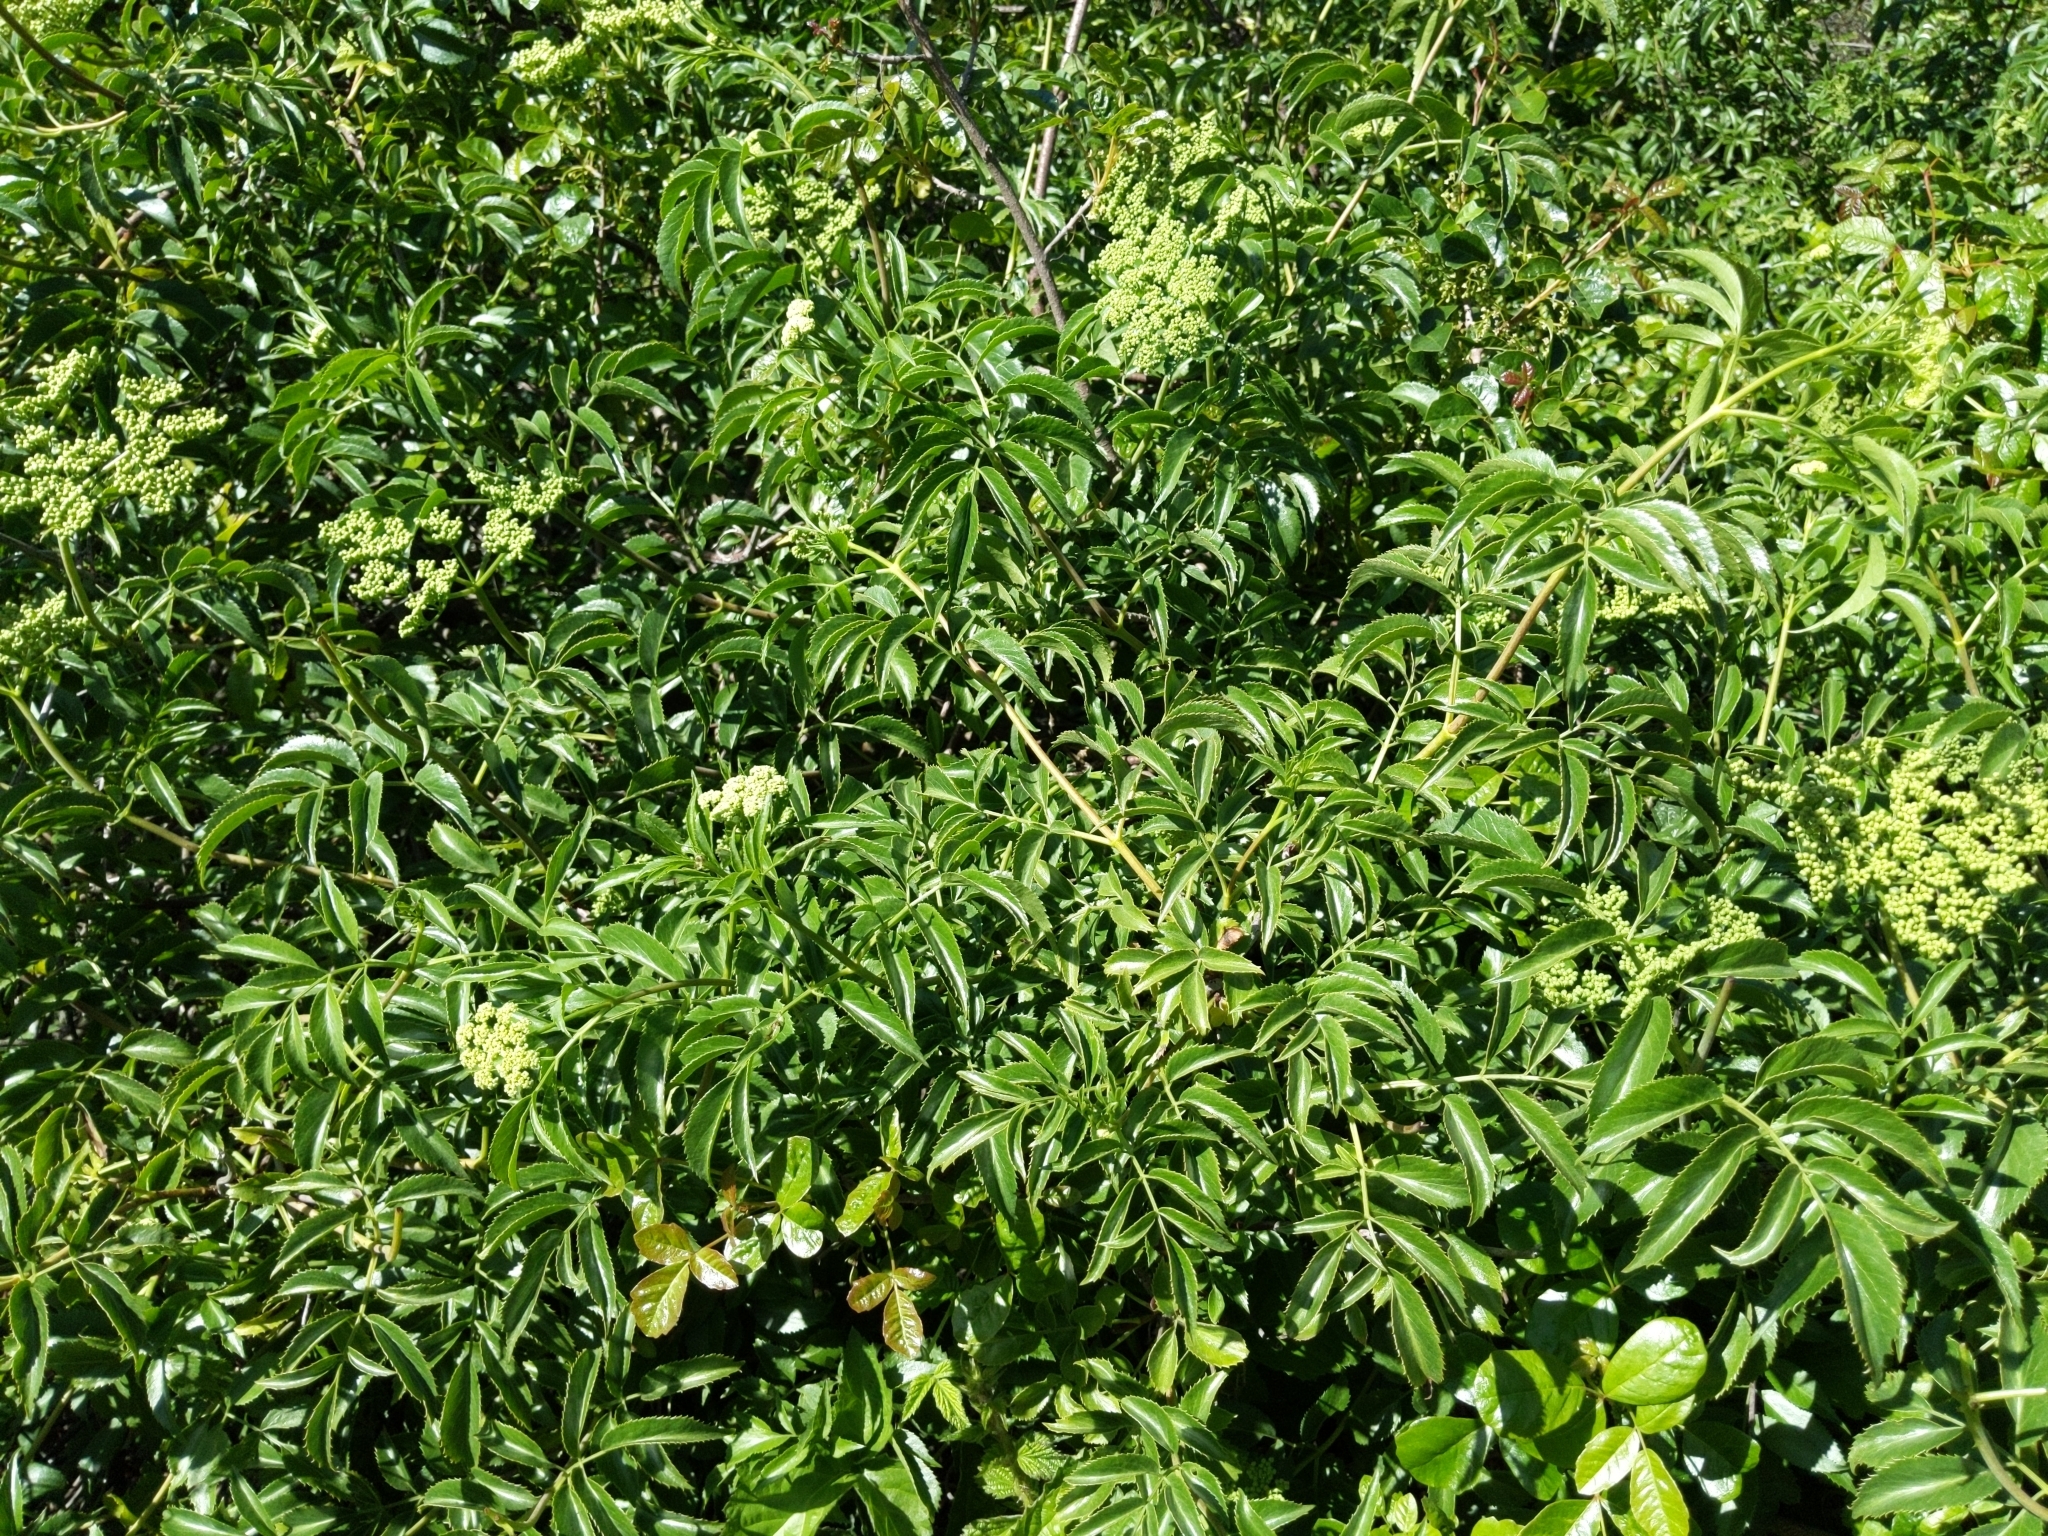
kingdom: Plantae
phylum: Tracheophyta
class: Magnoliopsida
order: Dipsacales
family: Viburnaceae
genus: Sambucus
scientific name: Sambucus cerulea
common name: Blue elder
